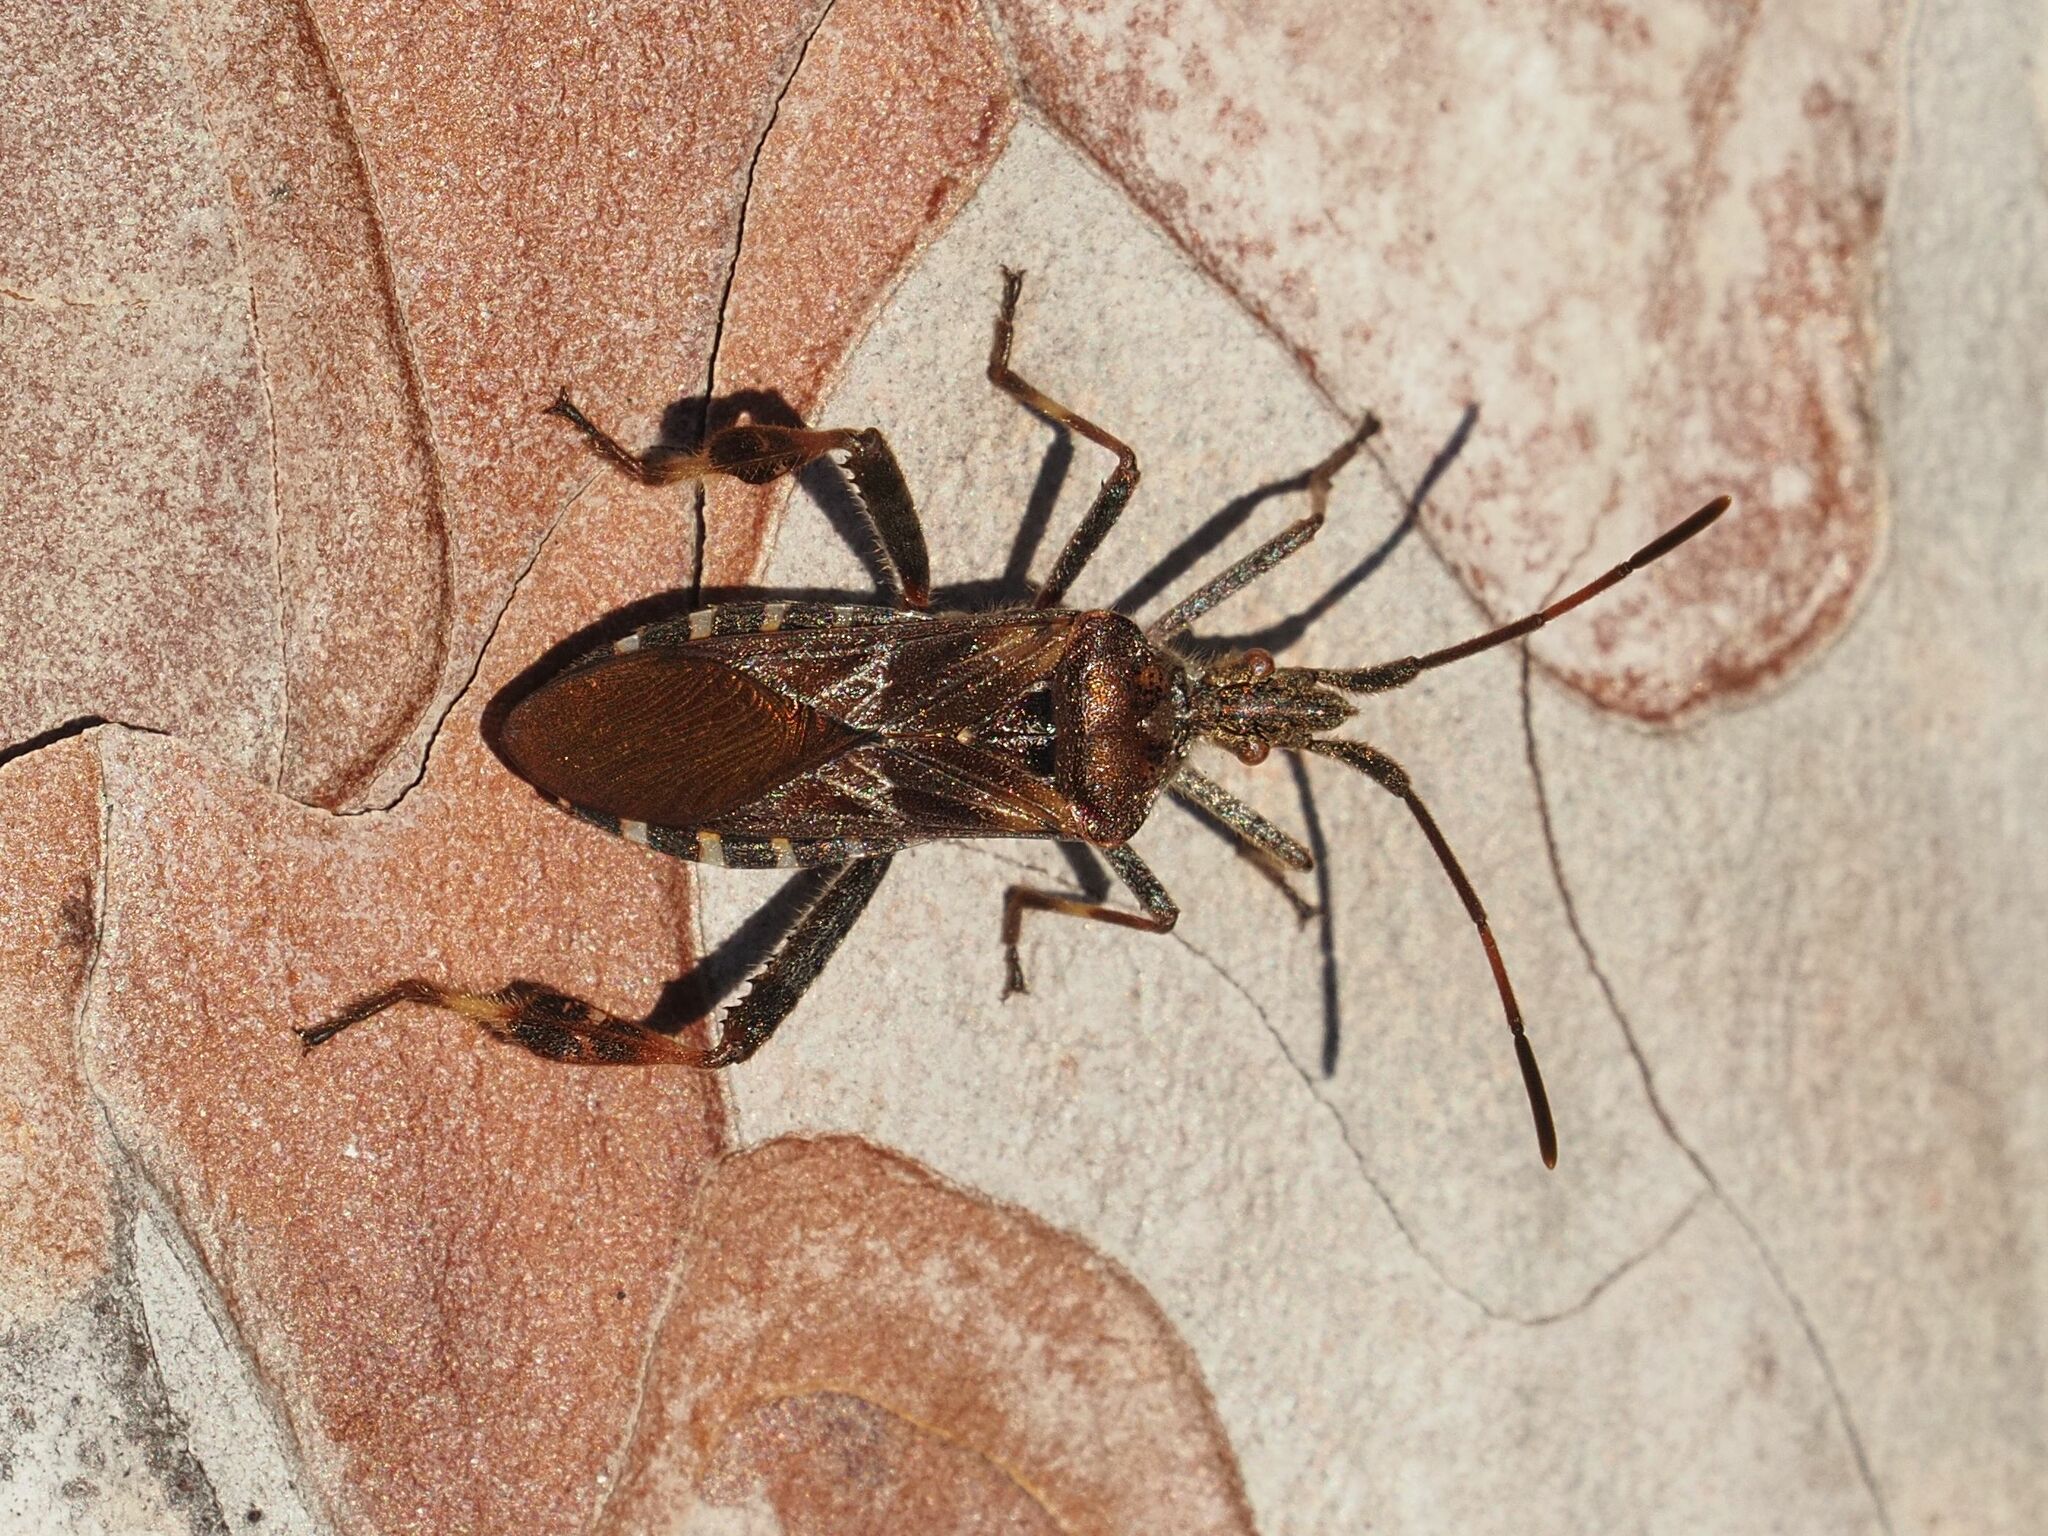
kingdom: Animalia
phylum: Arthropoda
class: Insecta
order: Hemiptera
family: Coreidae
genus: Leptoglossus
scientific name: Leptoglossus occidentalis
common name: Western conifer-seed bug
